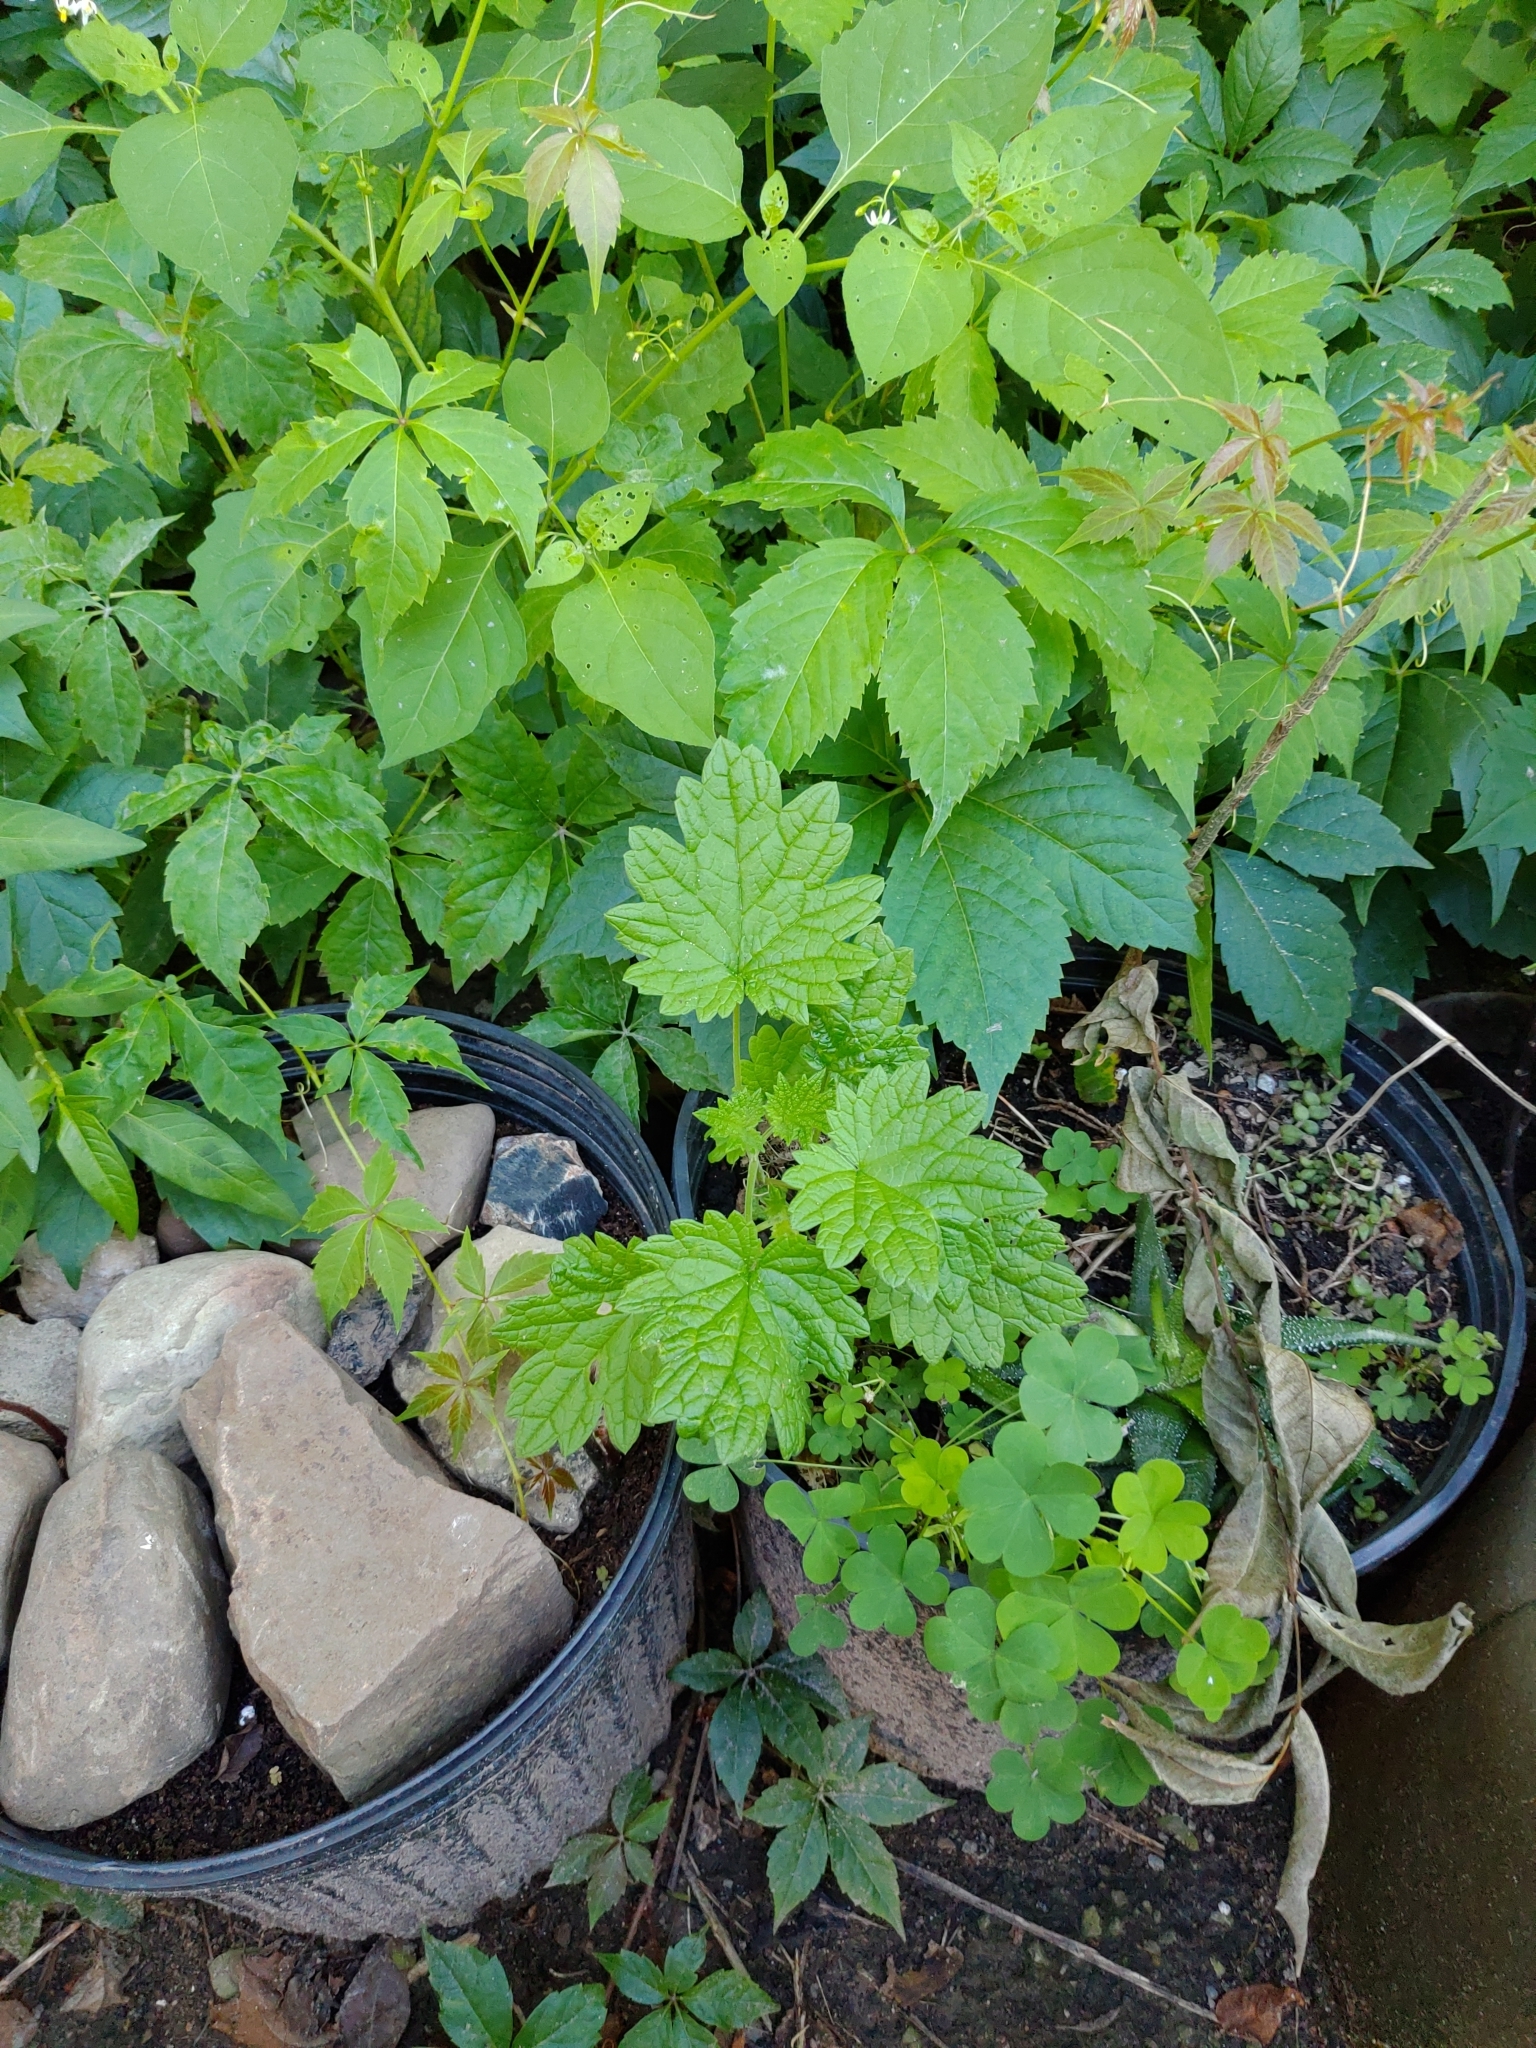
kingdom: Plantae
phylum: Tracheophyta
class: Magnoliopsida
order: Lamiales
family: Lamiaceae
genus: Leonurus
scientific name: Leonurus cardiaca
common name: Motherwort
